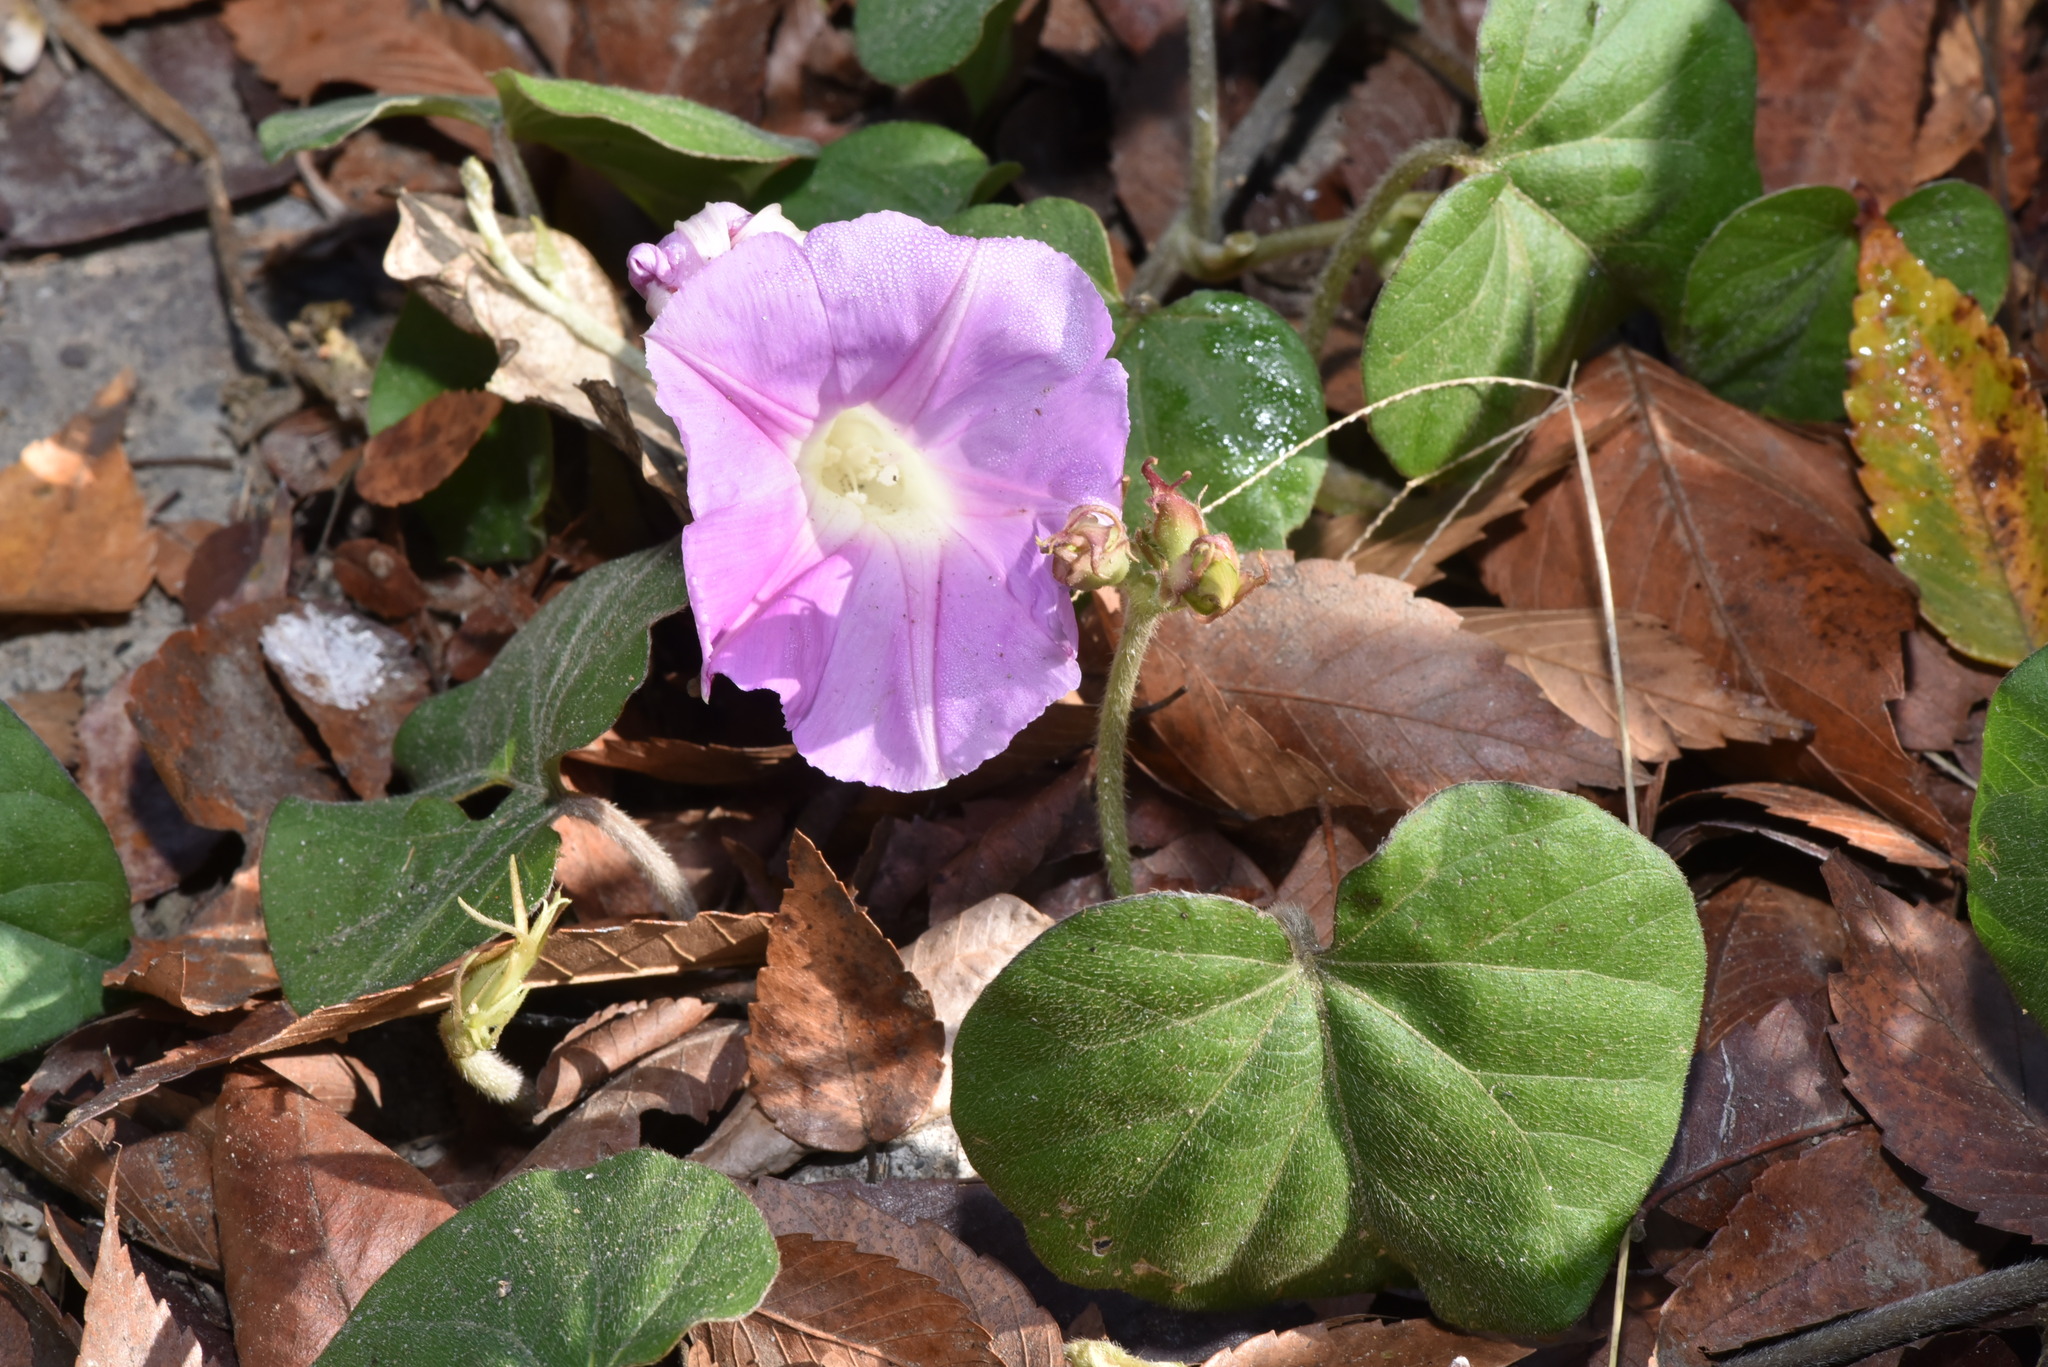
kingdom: Plantae
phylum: Tracheophyta
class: Magnoliopsida
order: Solanales
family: Convolvulaceae
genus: Ipomoea
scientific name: Ipomoea indica
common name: Blue dawnflower
